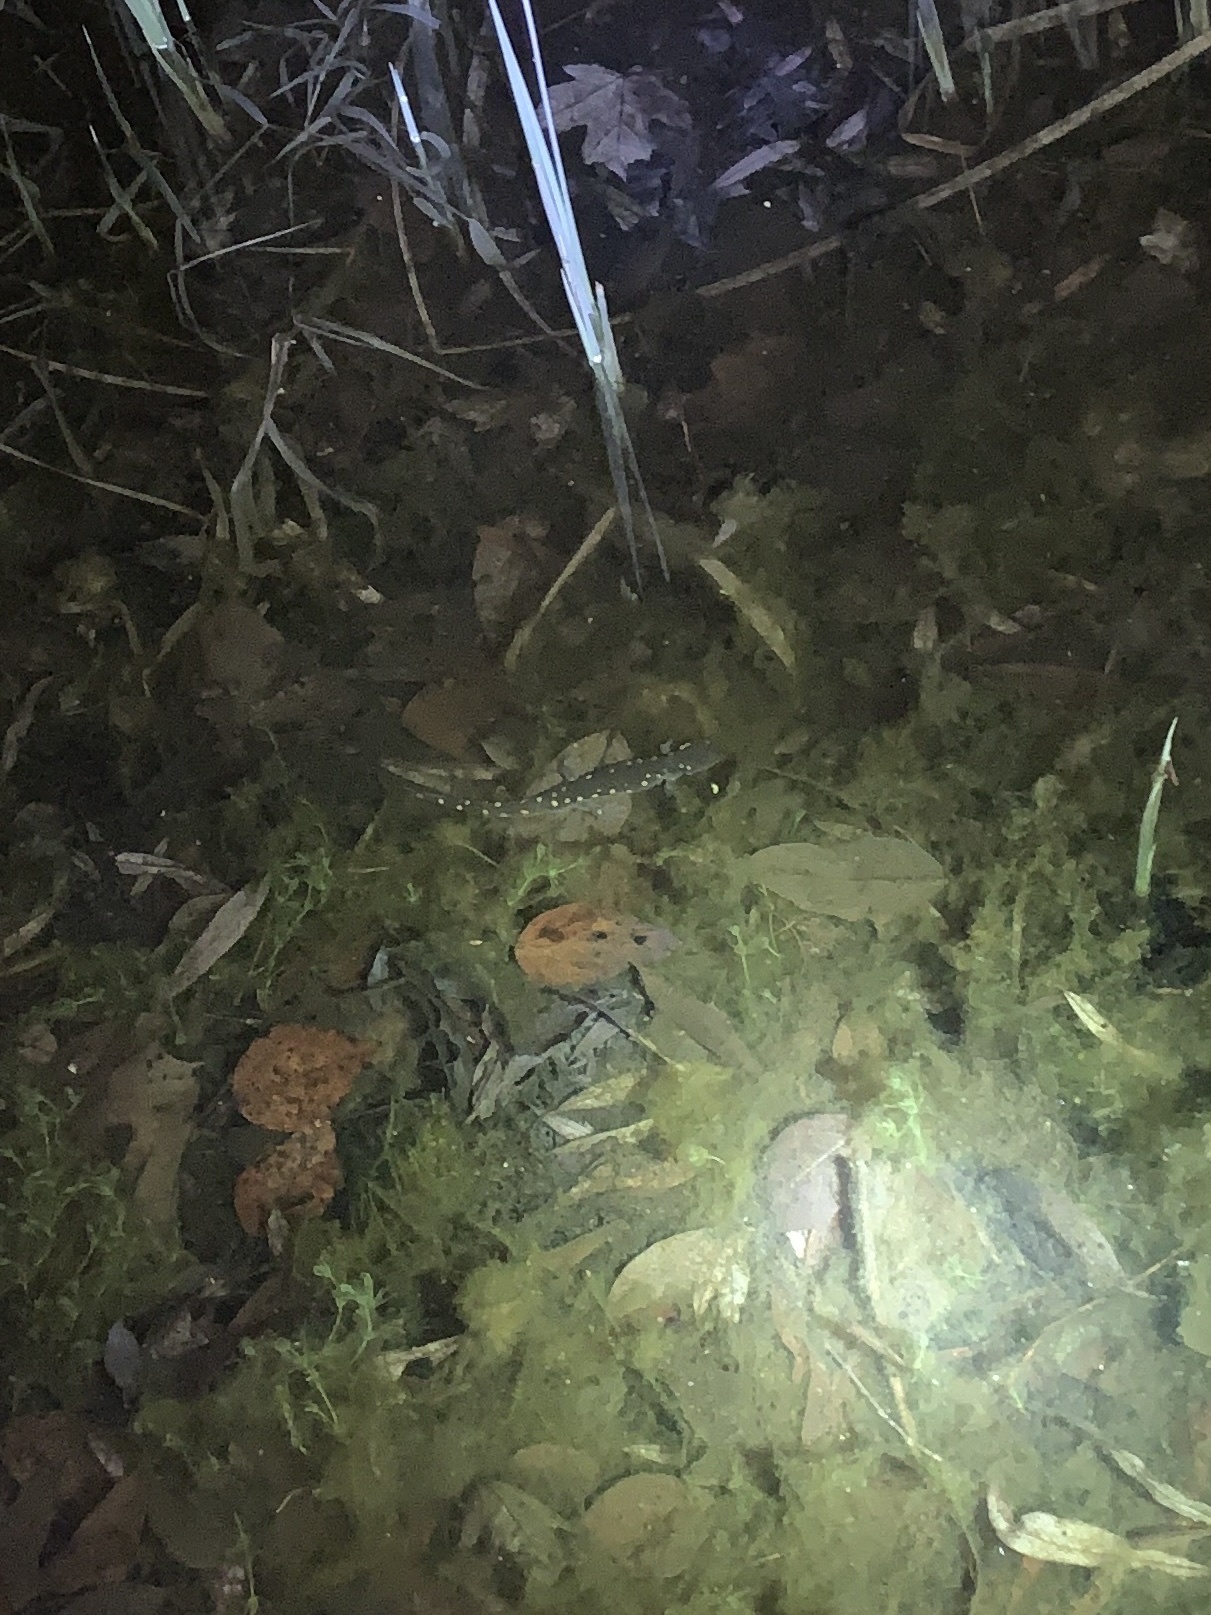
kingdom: Animalia
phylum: Chordata
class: Amphibia
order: Caudata
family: Ambystomatidae
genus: Ambystoma
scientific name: Ambystoma maculatum
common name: Spotted salamander
